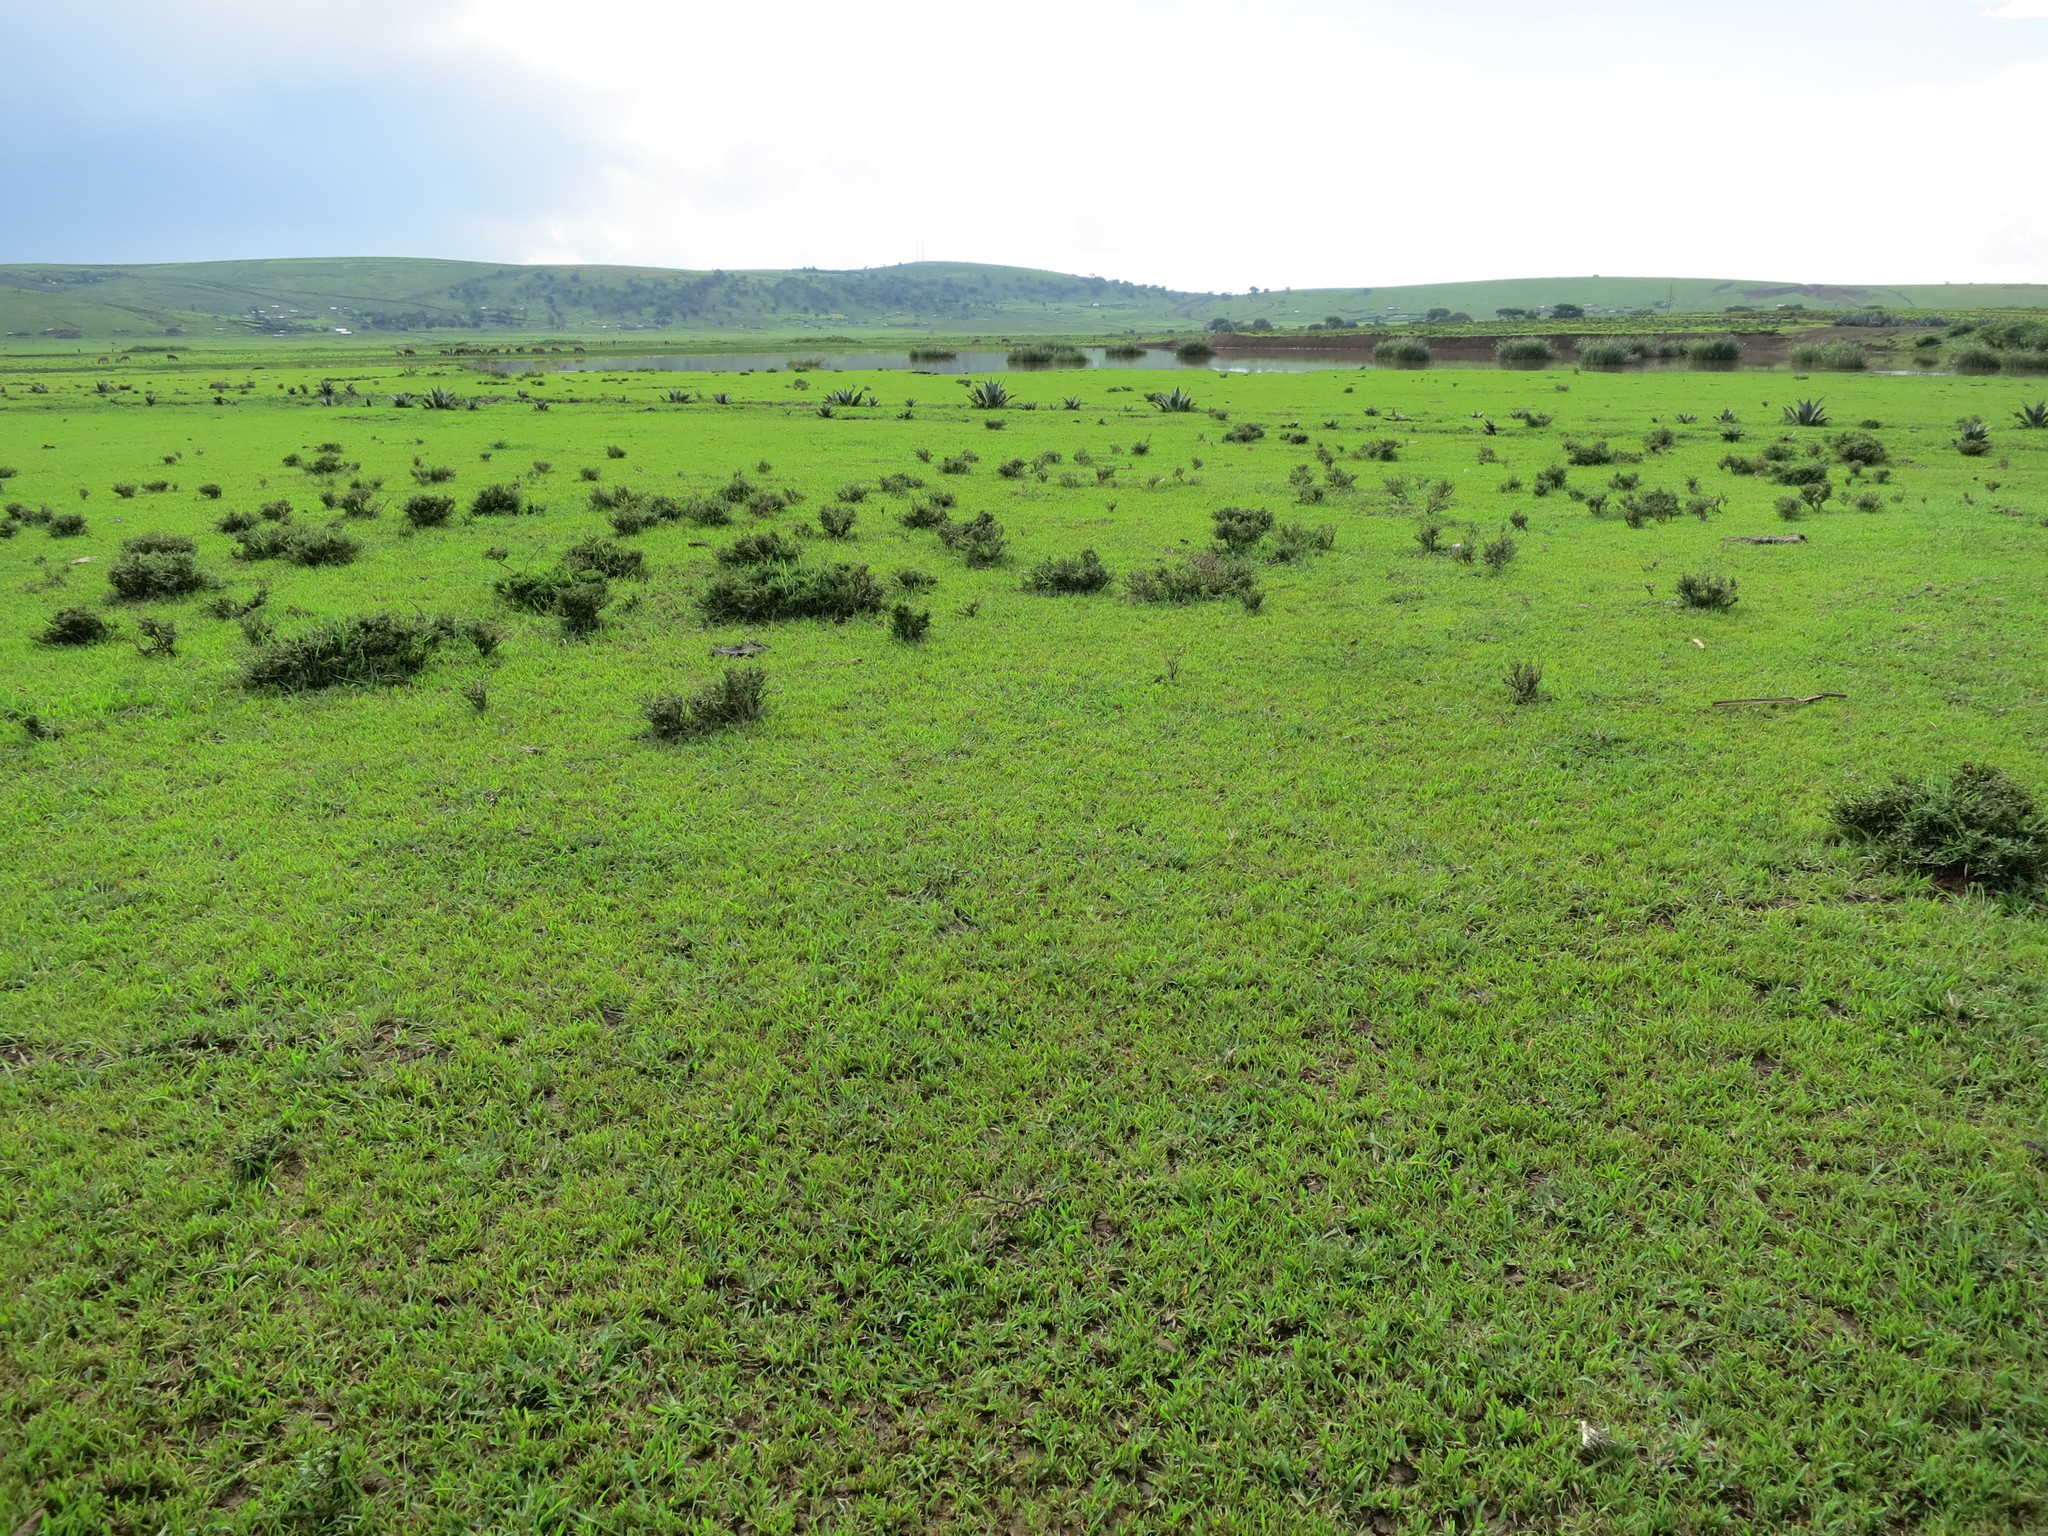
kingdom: Plantae
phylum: Tracheophyta
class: Liliopsida
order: Poales
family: Poaceae
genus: Chloris
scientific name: Chloris pycnothrix
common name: Spiderweb chloris
